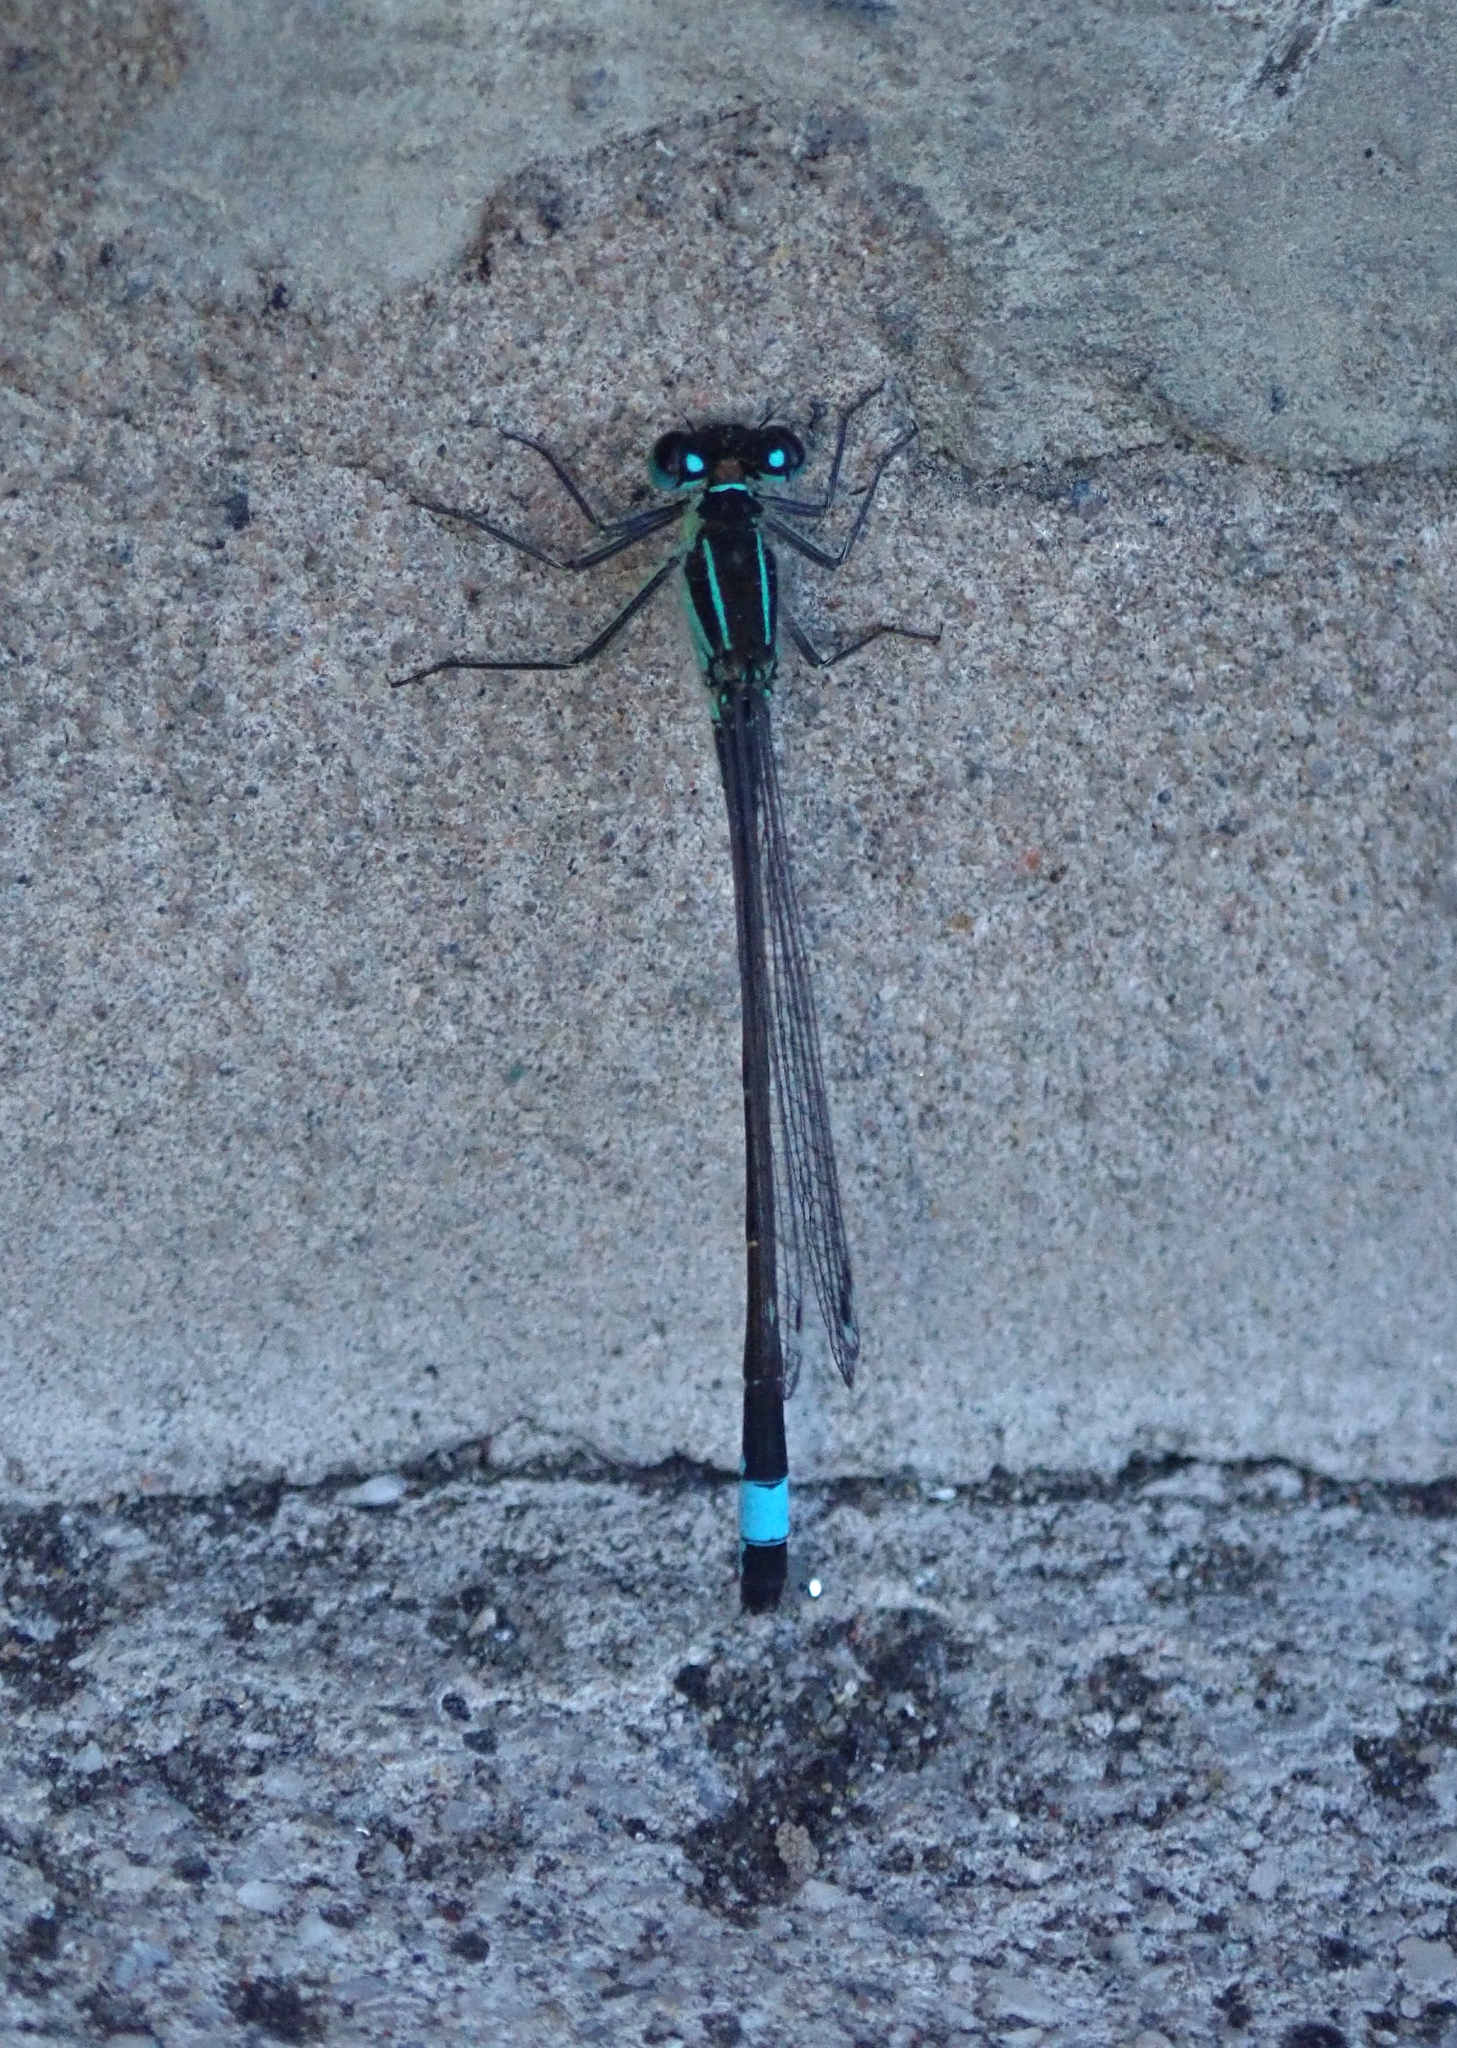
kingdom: Animalia
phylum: Arthropoda
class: Insecta
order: Odonata
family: Coenagrionidae
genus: Ischnura
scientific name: Ischnura elegans
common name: Blue-tailed damselfly
